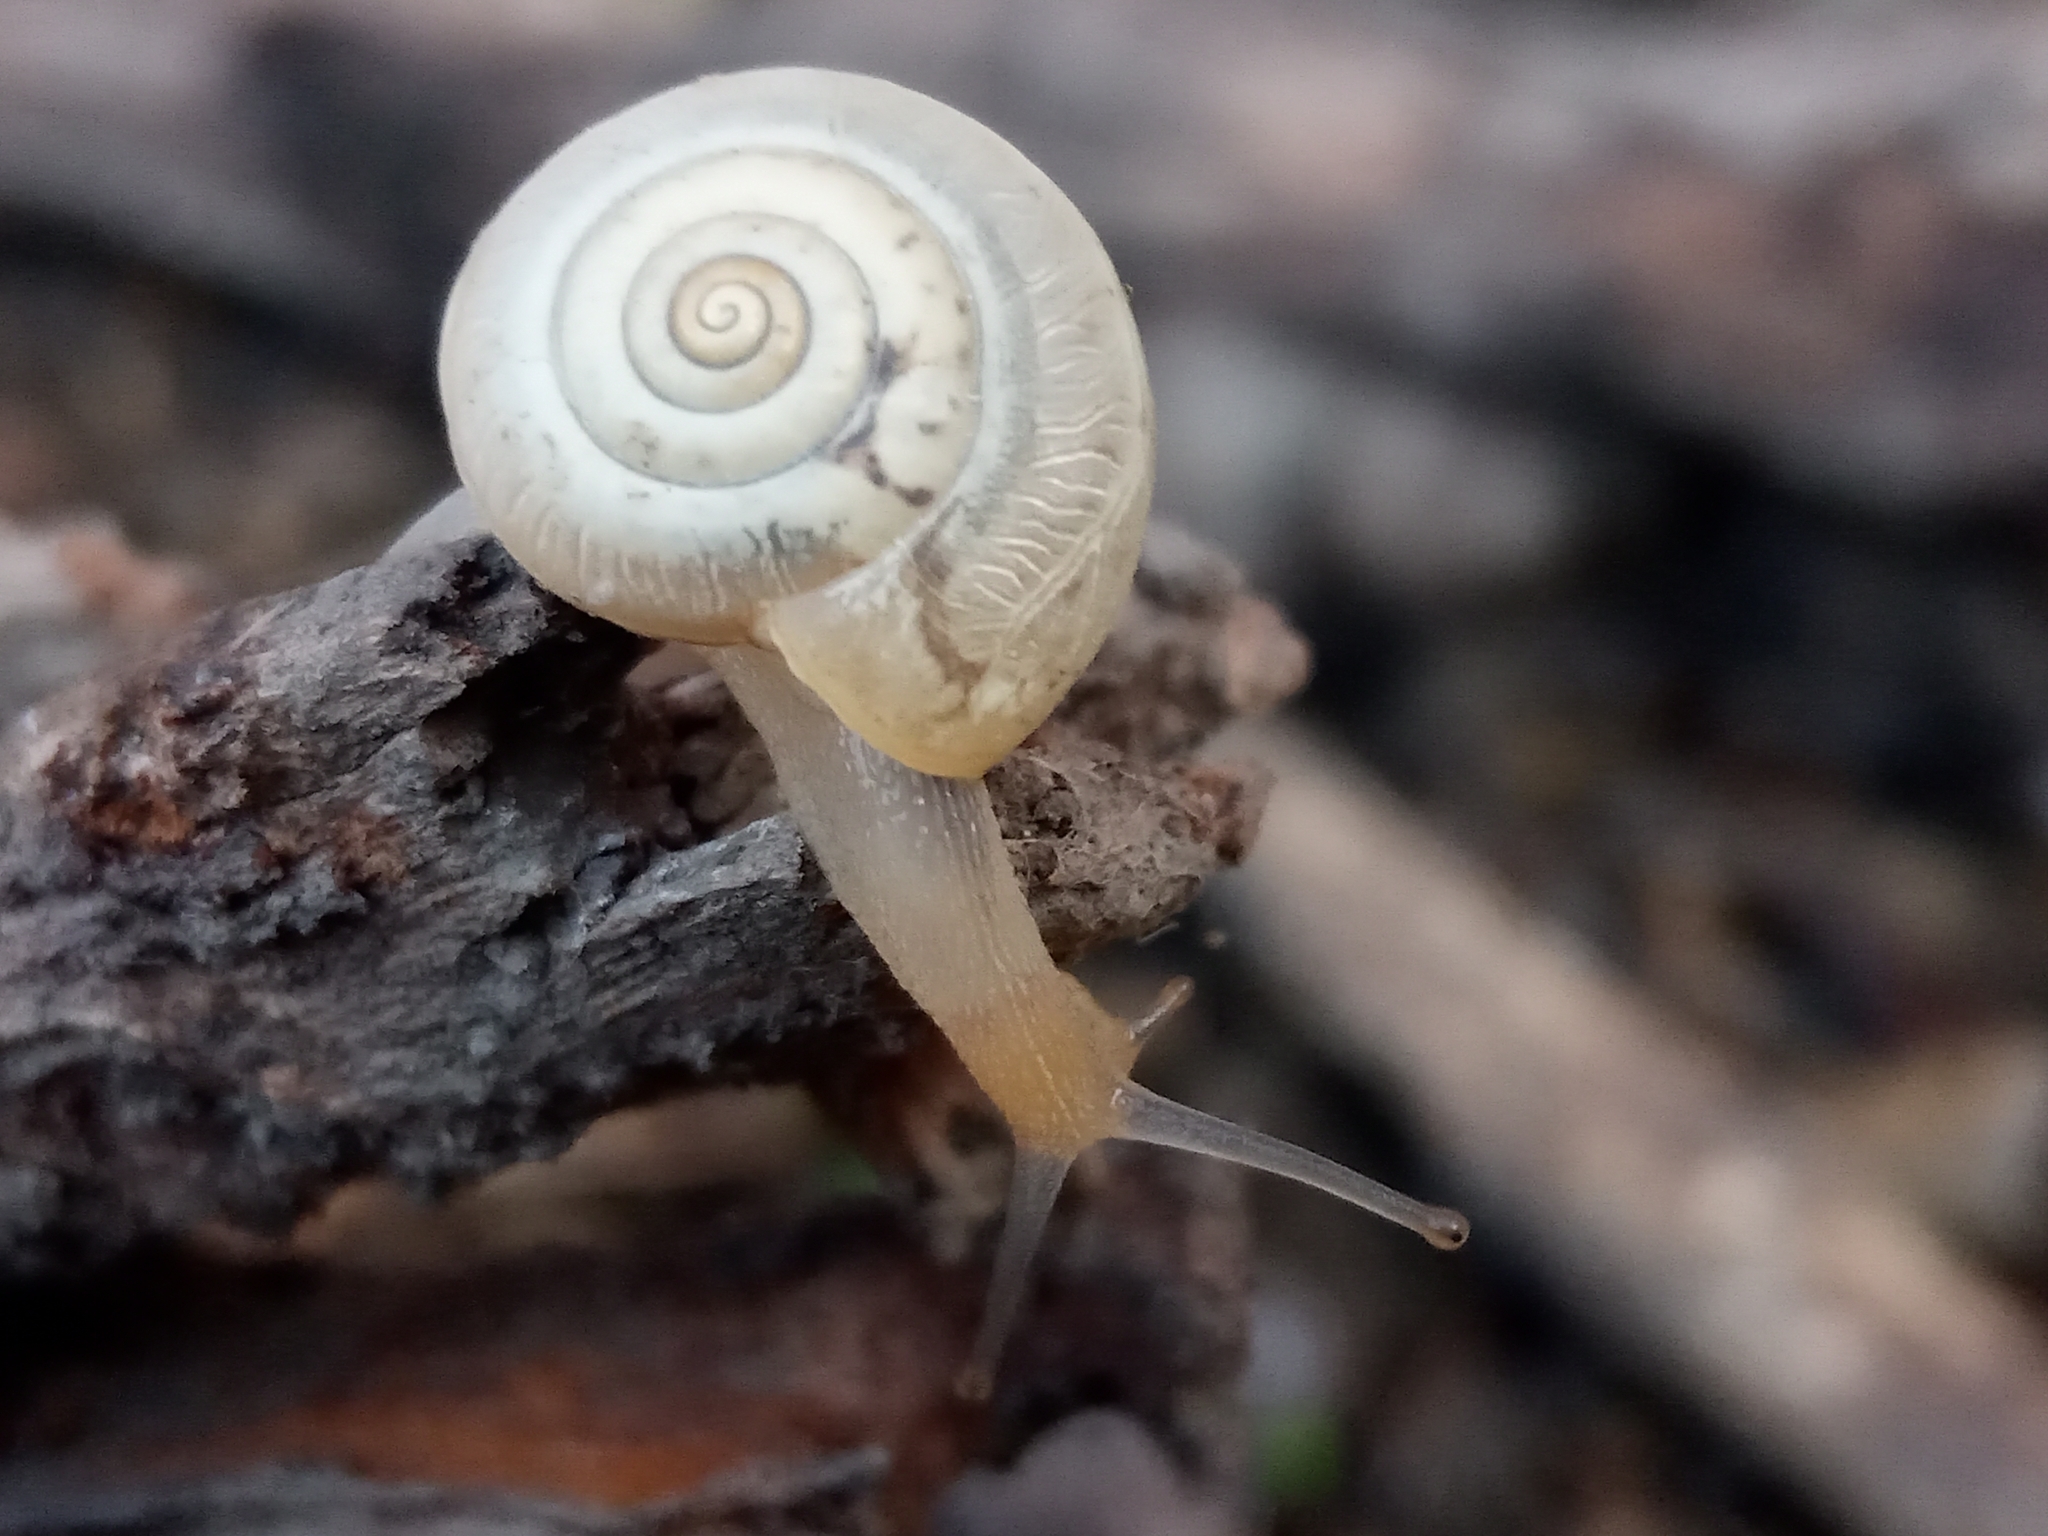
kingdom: Animalia
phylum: Mollusca
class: Gastropoda
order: Stylommatophora
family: Hygromiidae
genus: Monacha
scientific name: Monacha
